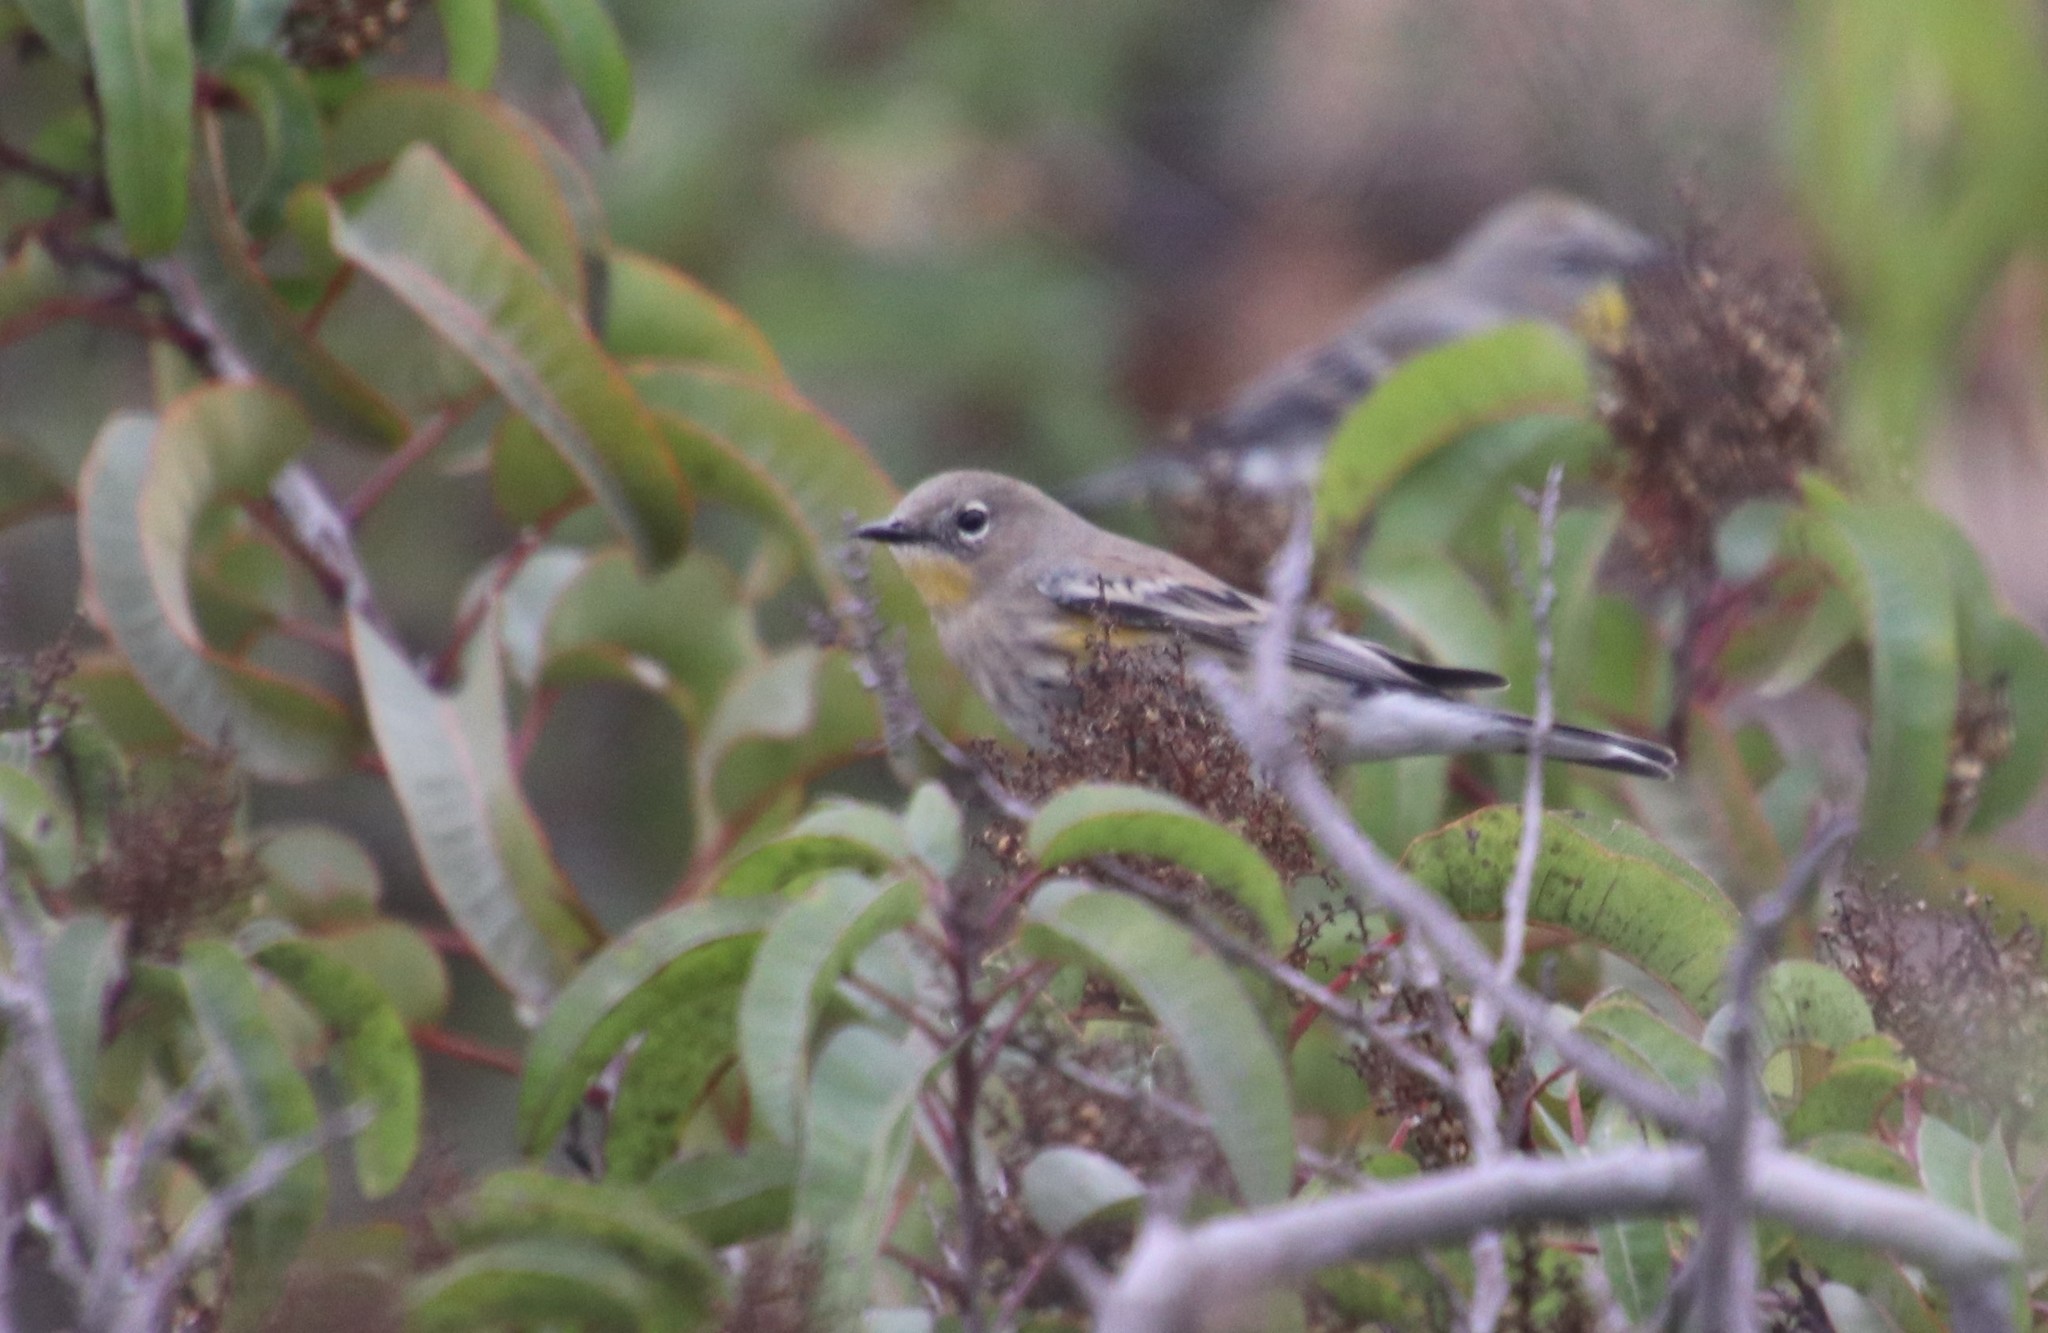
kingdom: Animalia
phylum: Chordata
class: Aves
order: Passeriformes
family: Parulidae
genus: Setophaga
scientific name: Setophaga auduboni
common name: Audubon's warbler
